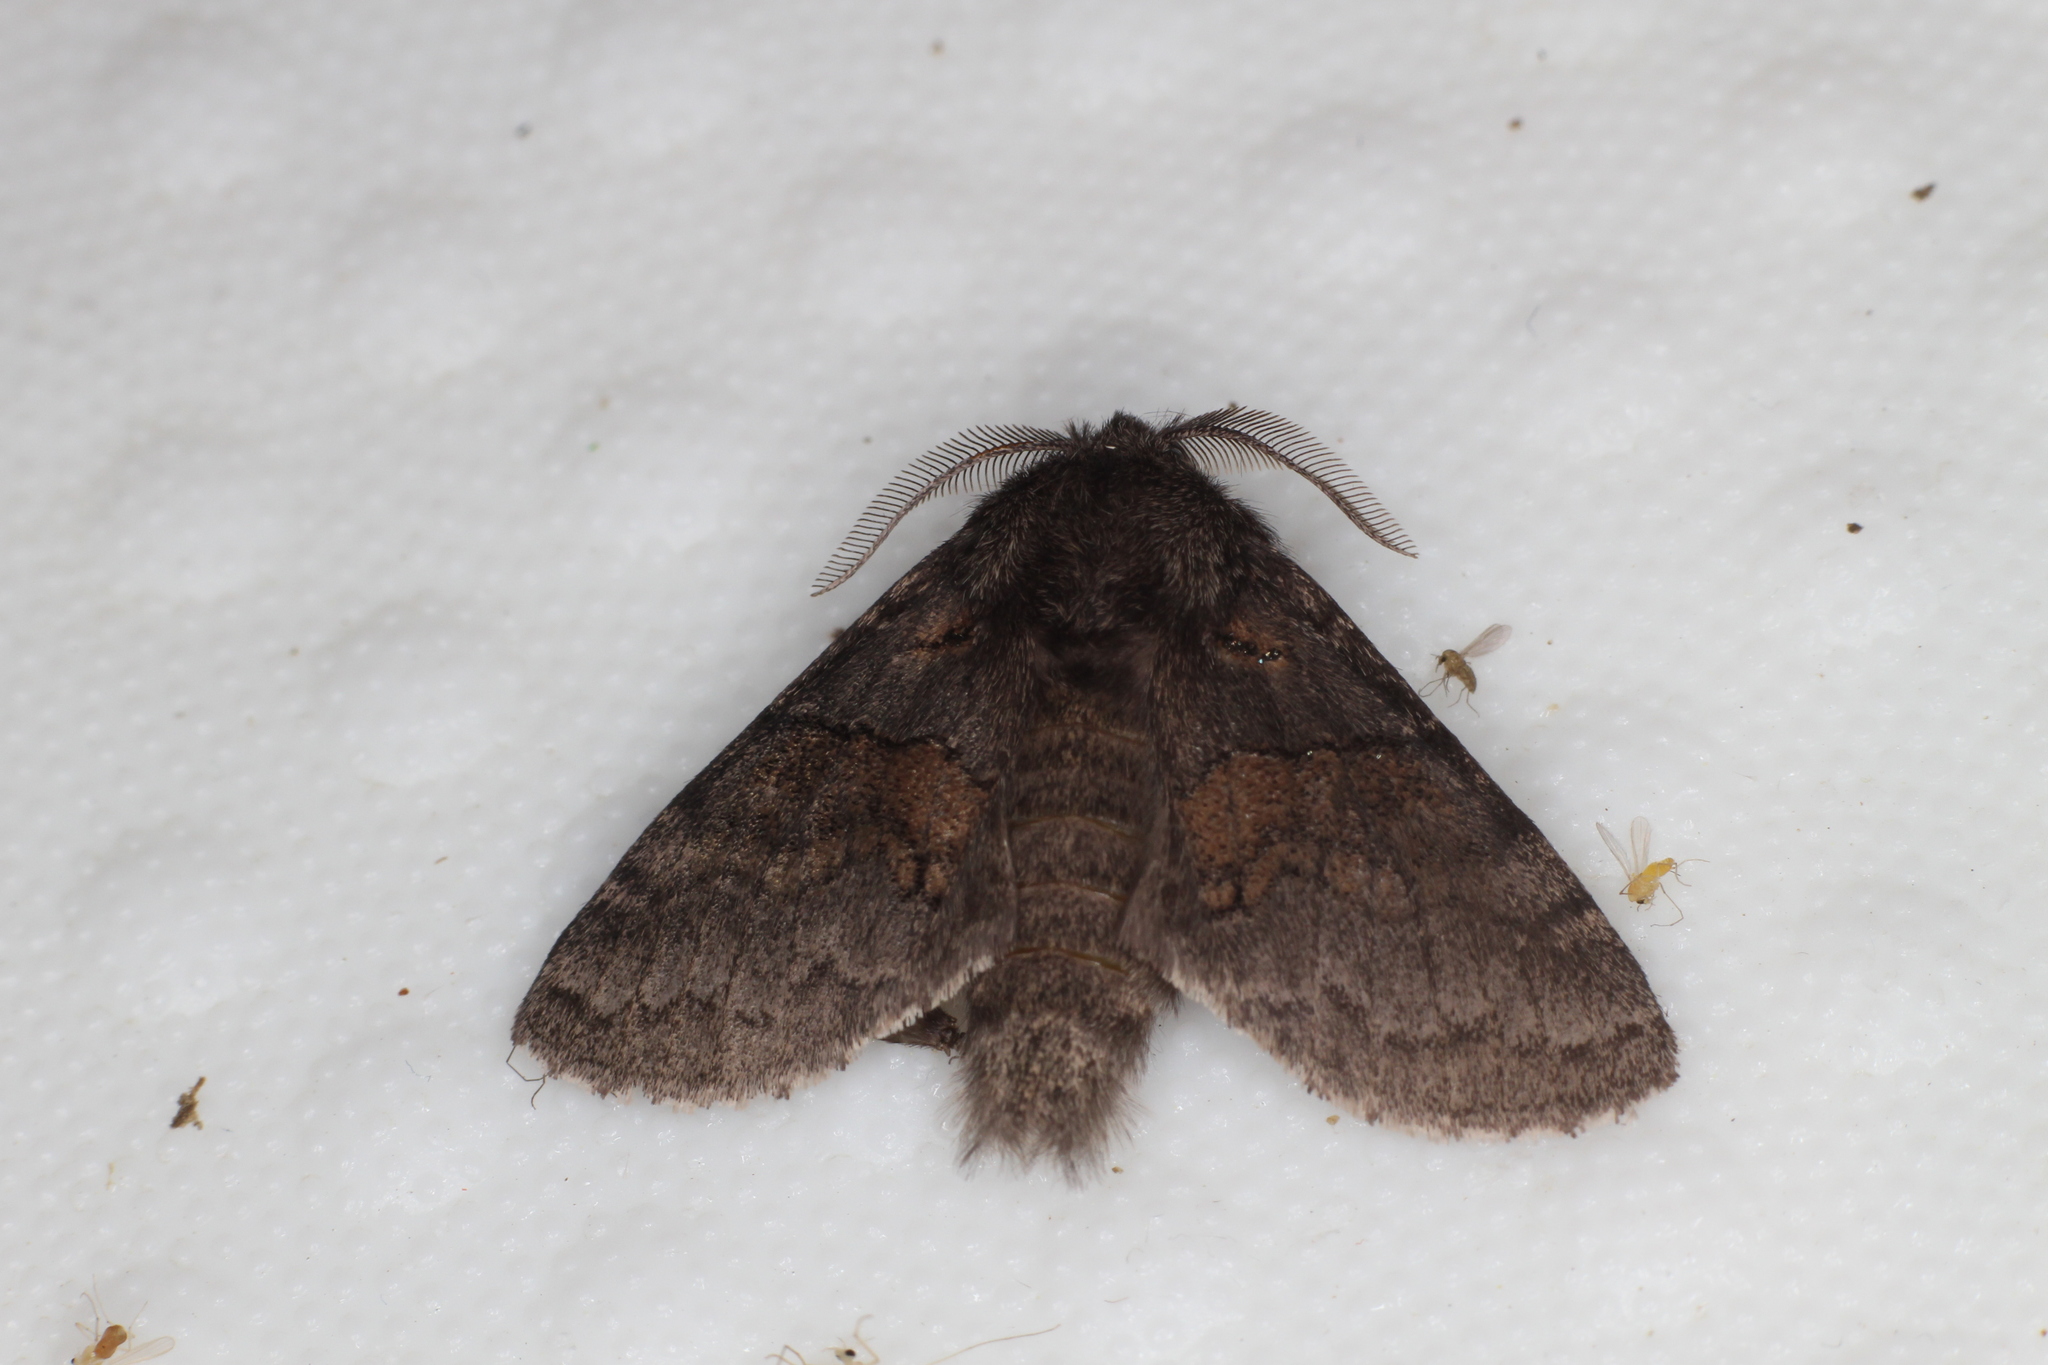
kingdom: Animalia
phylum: Arthropoda
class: Insecta
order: Lepidoptera
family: Notodontidae
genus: Gluphisia
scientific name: Gluphisia septentrionis
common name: Common gluphisia
